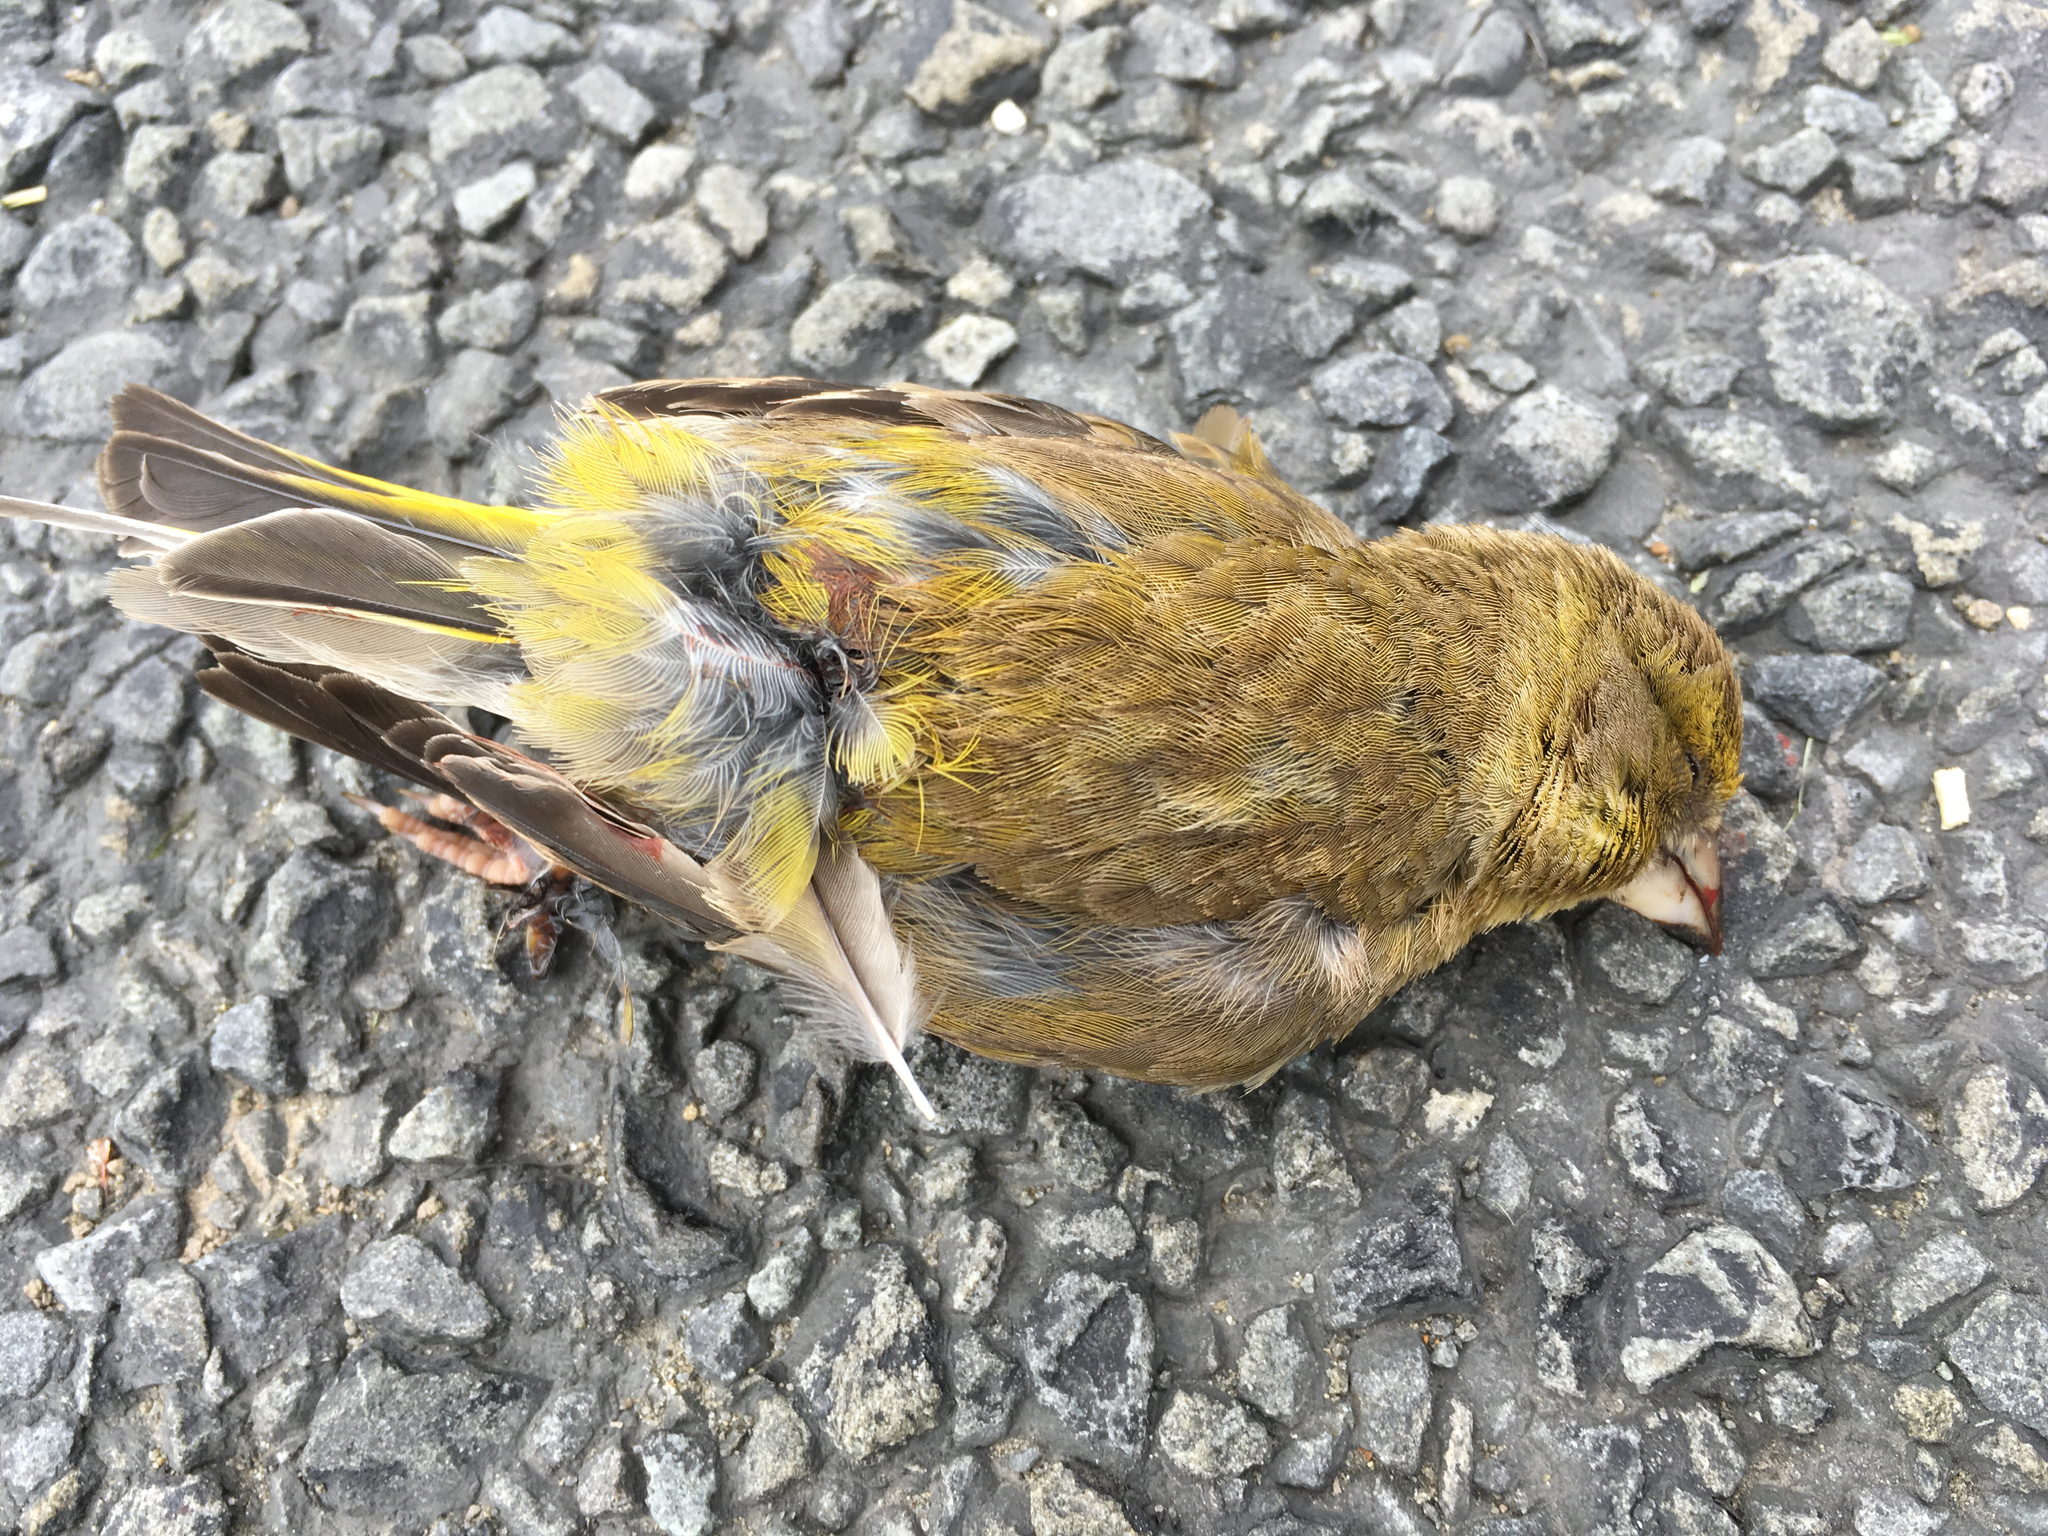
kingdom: Plantae
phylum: Tracheophyta
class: Liliopsida
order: Poales
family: Poaceae
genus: Chloris
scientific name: Chloris chloris
